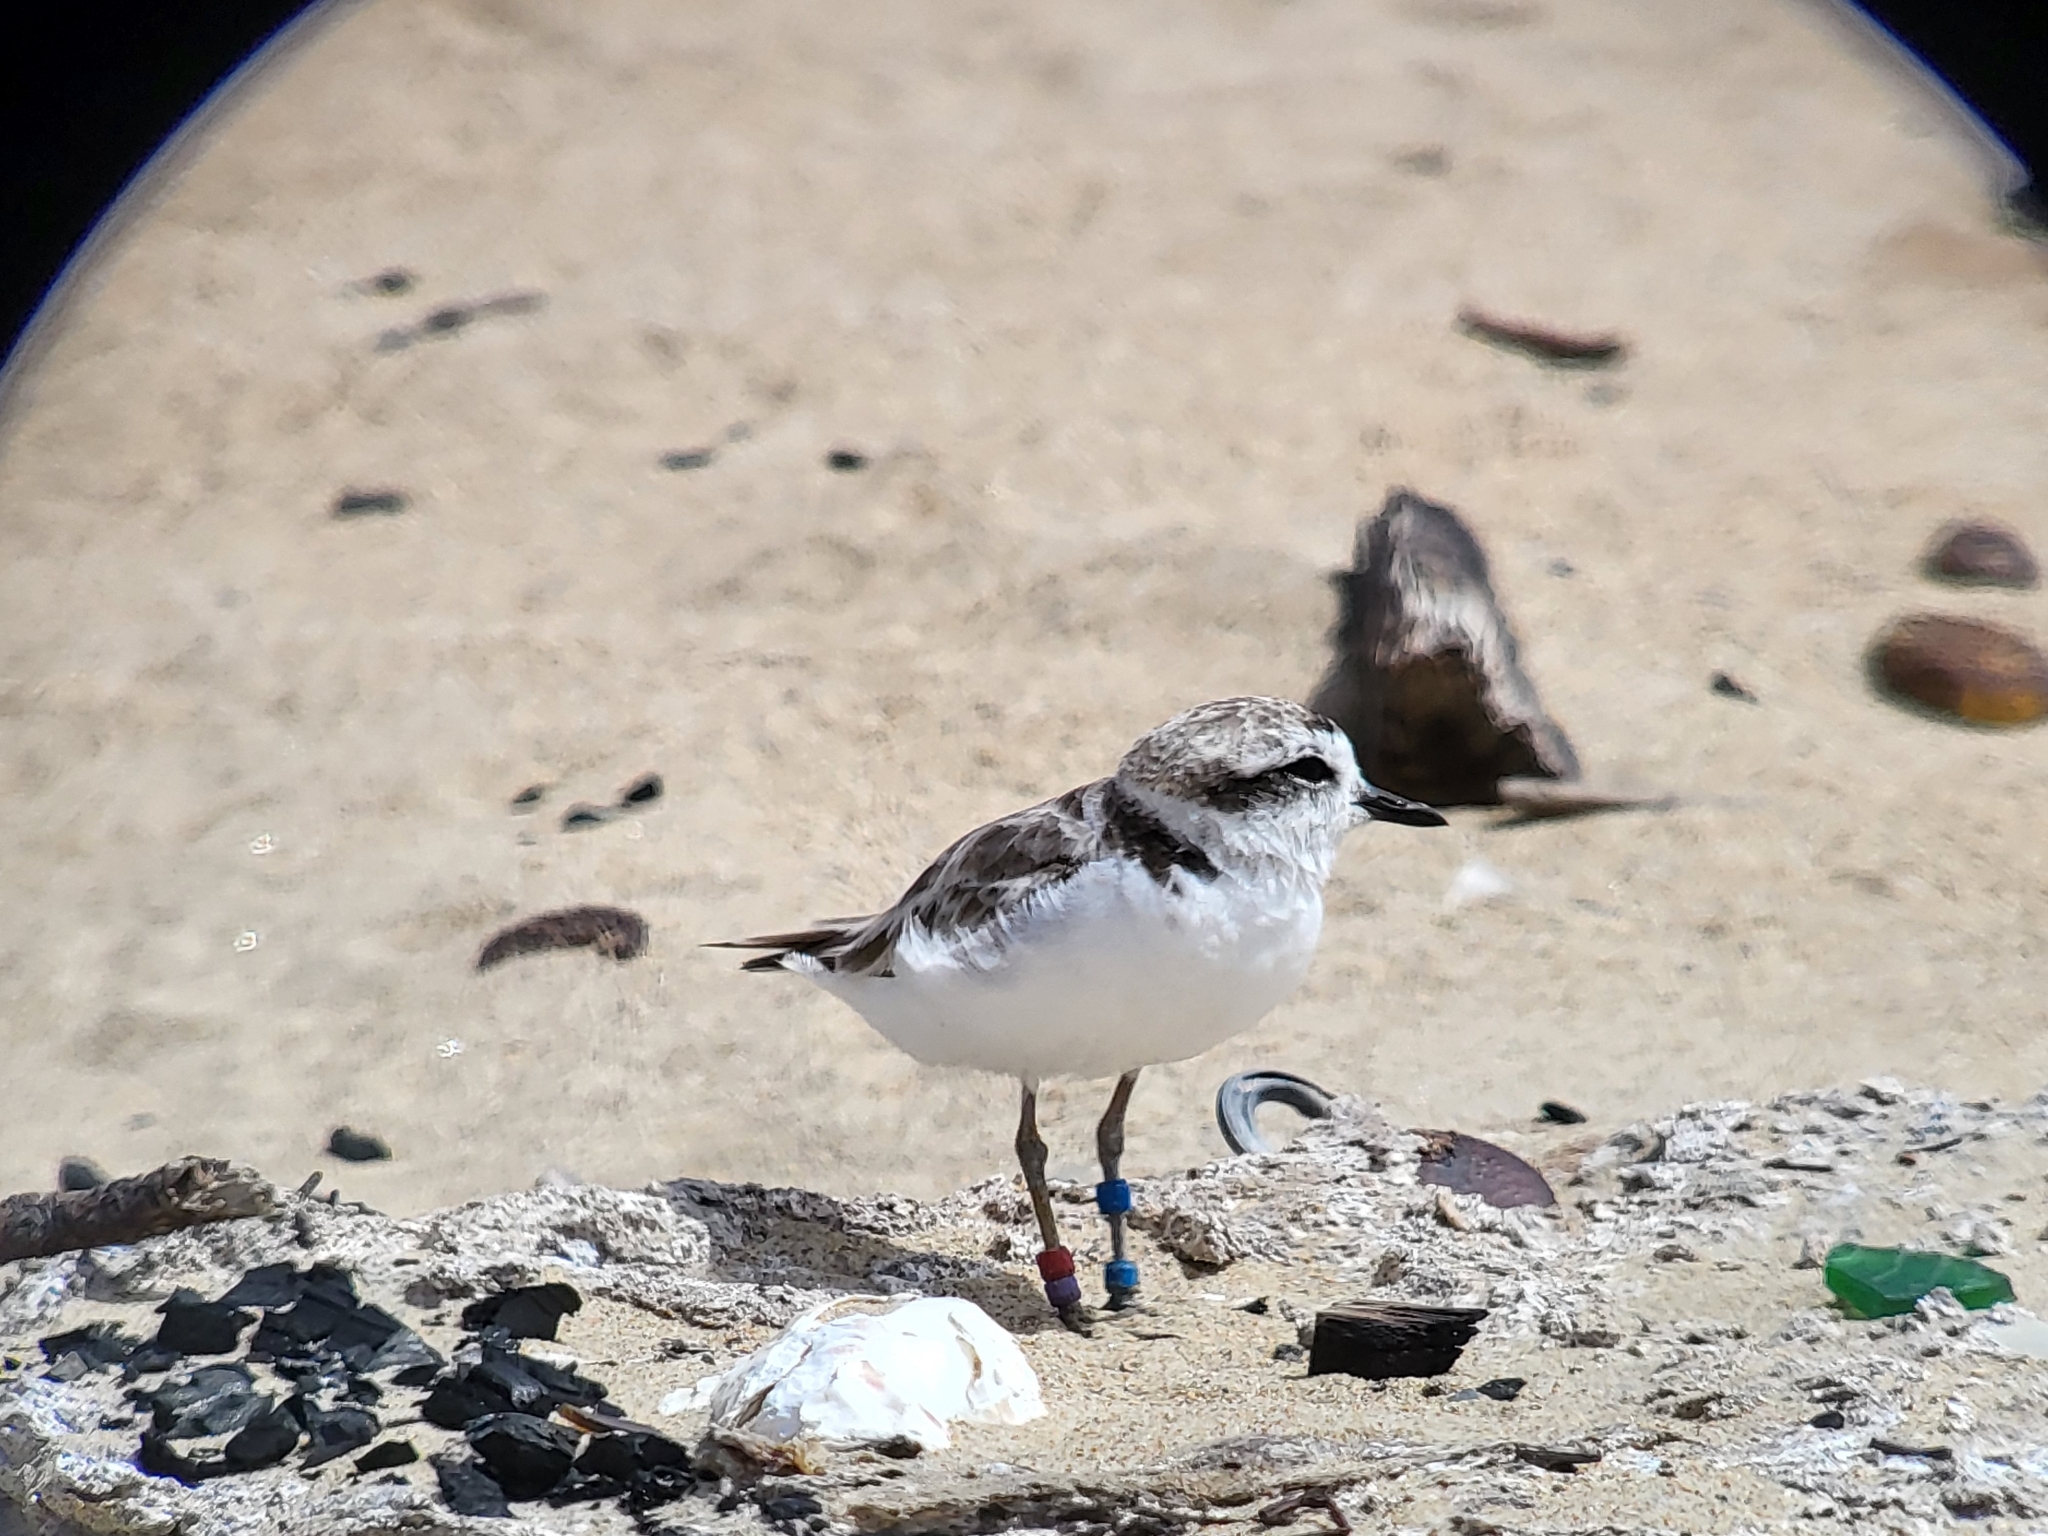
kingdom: Animalia
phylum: Chordata
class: Aves
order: Charadriiformes
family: Charadriidae
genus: Anarhynchus
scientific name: Anarhynchus
